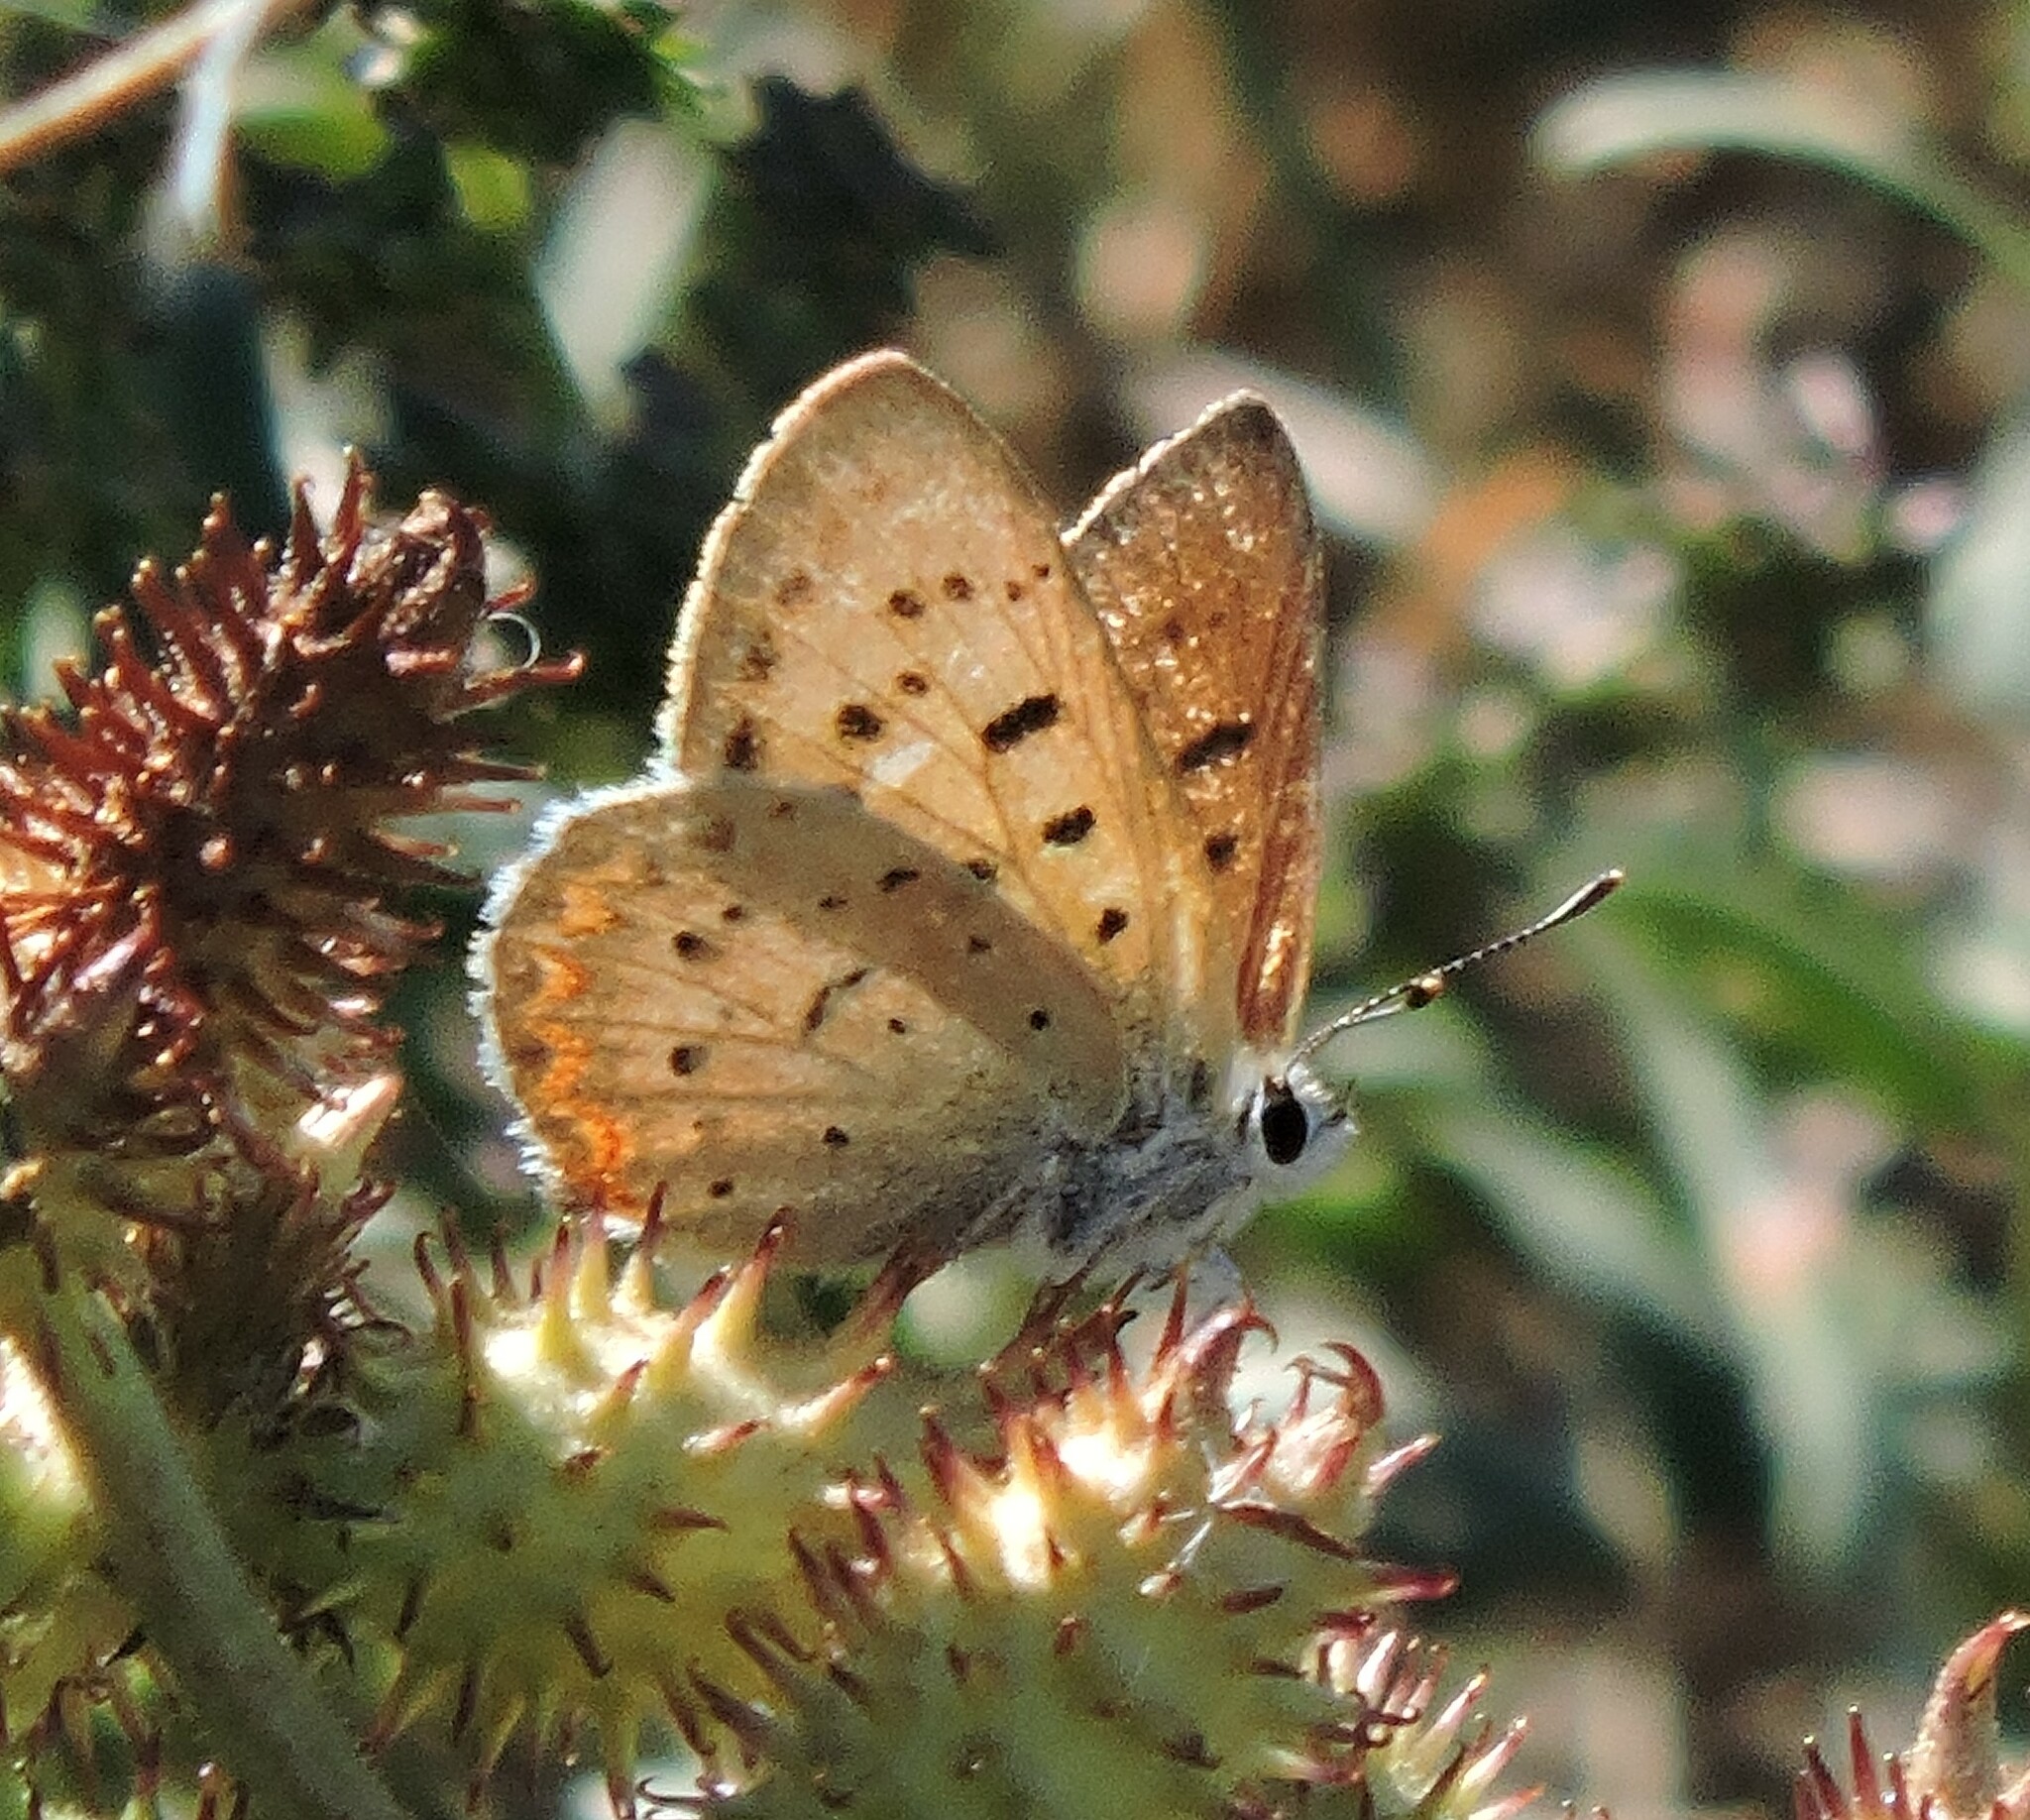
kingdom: Animalia
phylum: Arthropoda
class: Insecta
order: Lepidoptera
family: Lycaenidae
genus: Tharsalea
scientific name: Tharsalea helloides
